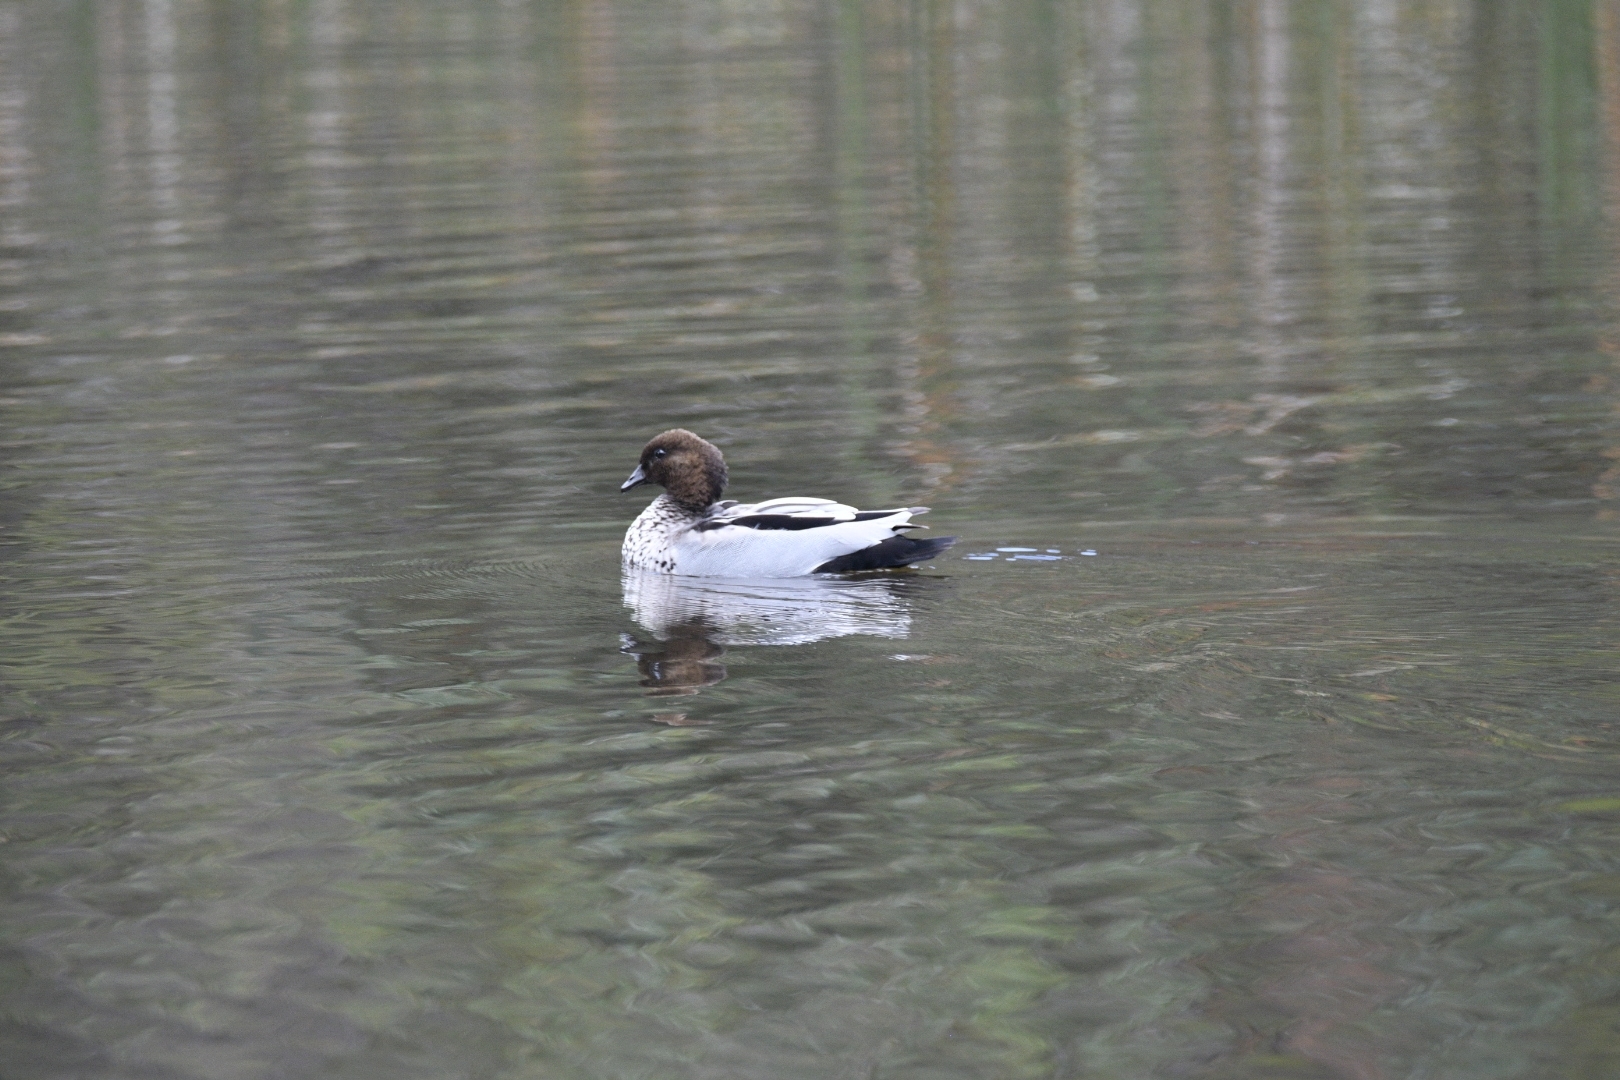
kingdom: Animalia
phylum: Chordata
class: Aves
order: Anseriformes
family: Anatidae
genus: Chenonetta
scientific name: Chenonetta jubata
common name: Maned duck
